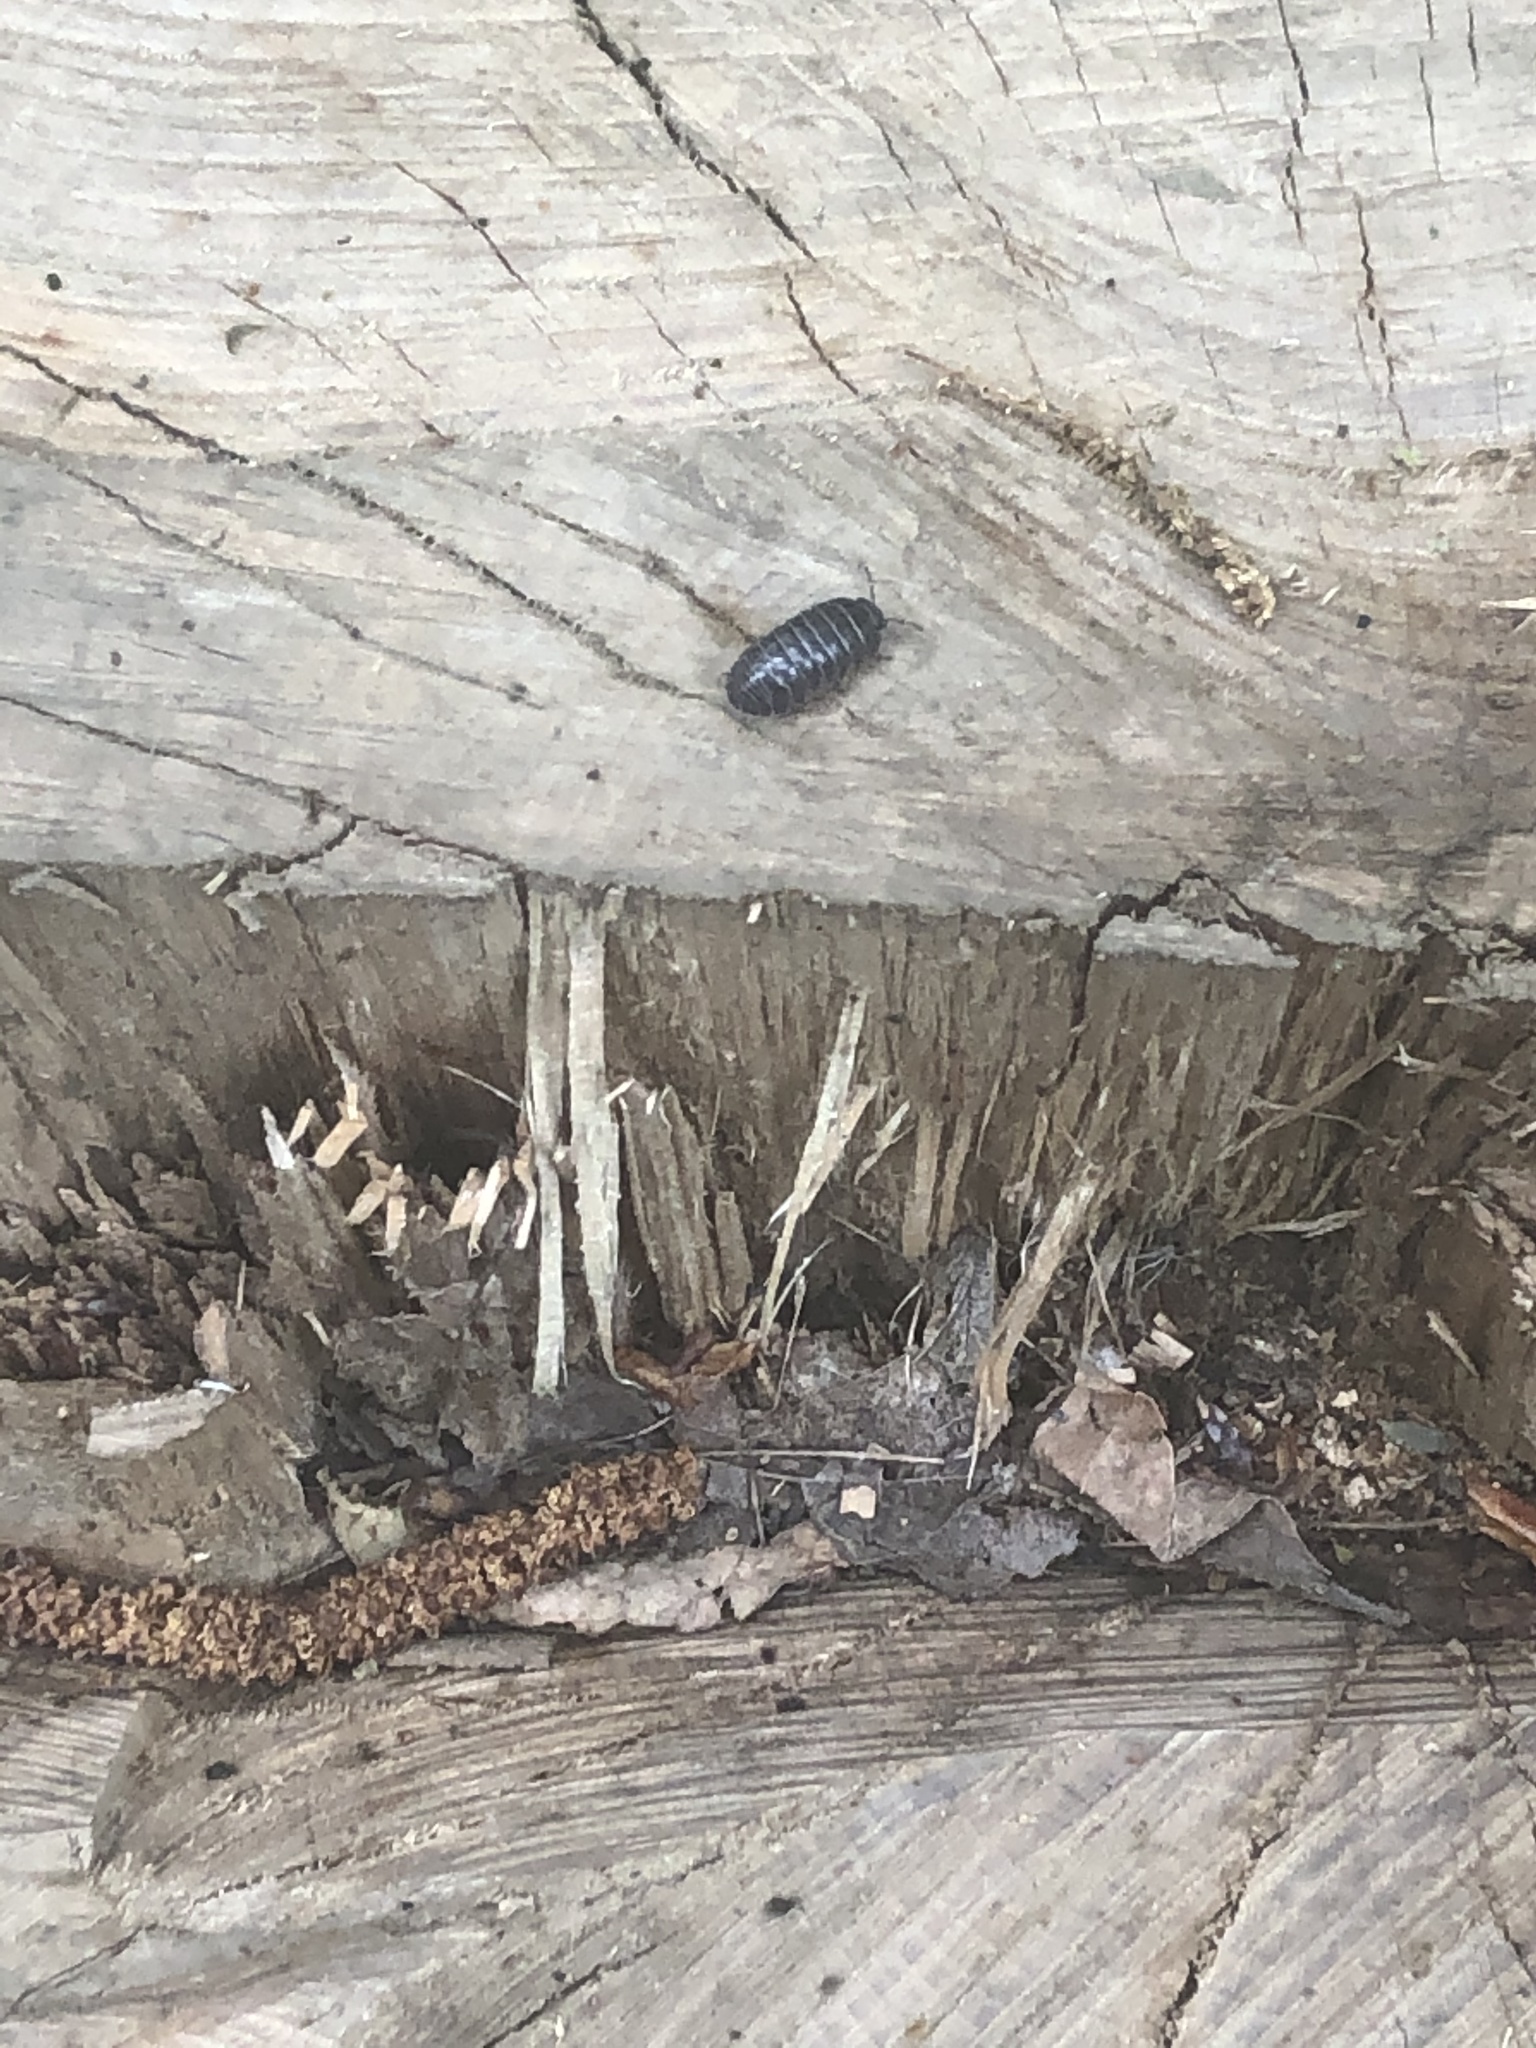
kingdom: Animalia
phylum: Arthropoda
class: Malacostraca
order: Isopoda
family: Armadillidiidae
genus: Armadillidium
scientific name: Armadillidium vulgare
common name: Common pill woodlouse
